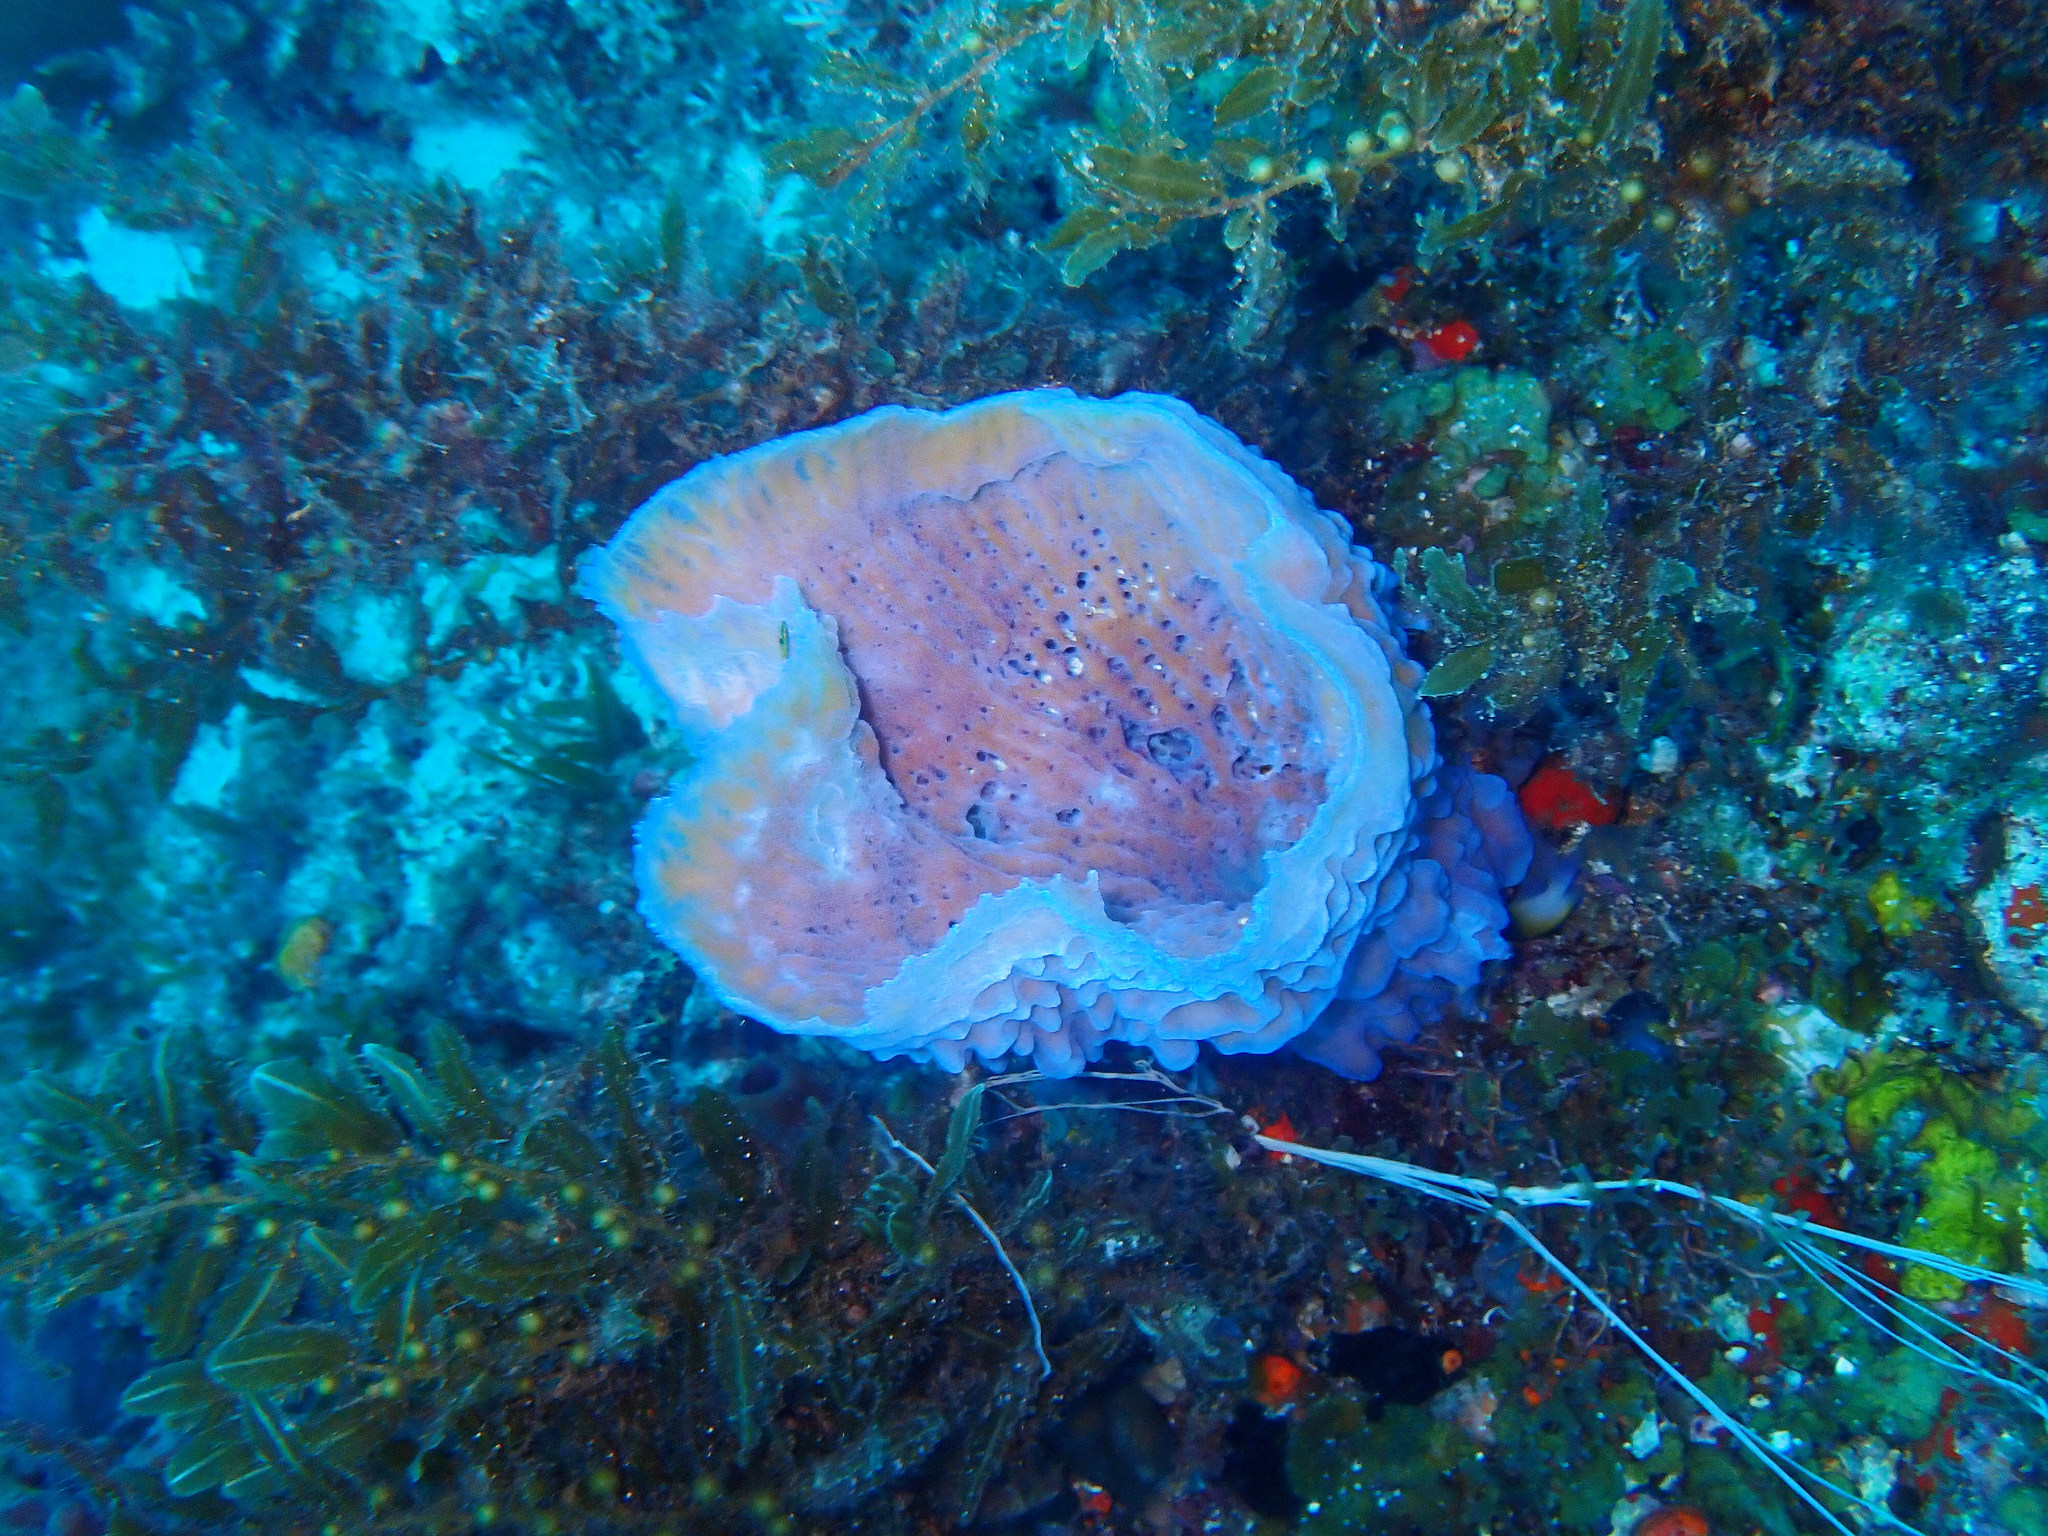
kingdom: Animalia
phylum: Porifera
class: Demospongiae
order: Haplosclerida
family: Callyspongiidae
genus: Callyspongia
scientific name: Callyspongia plicifera
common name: Azure vase sponge
